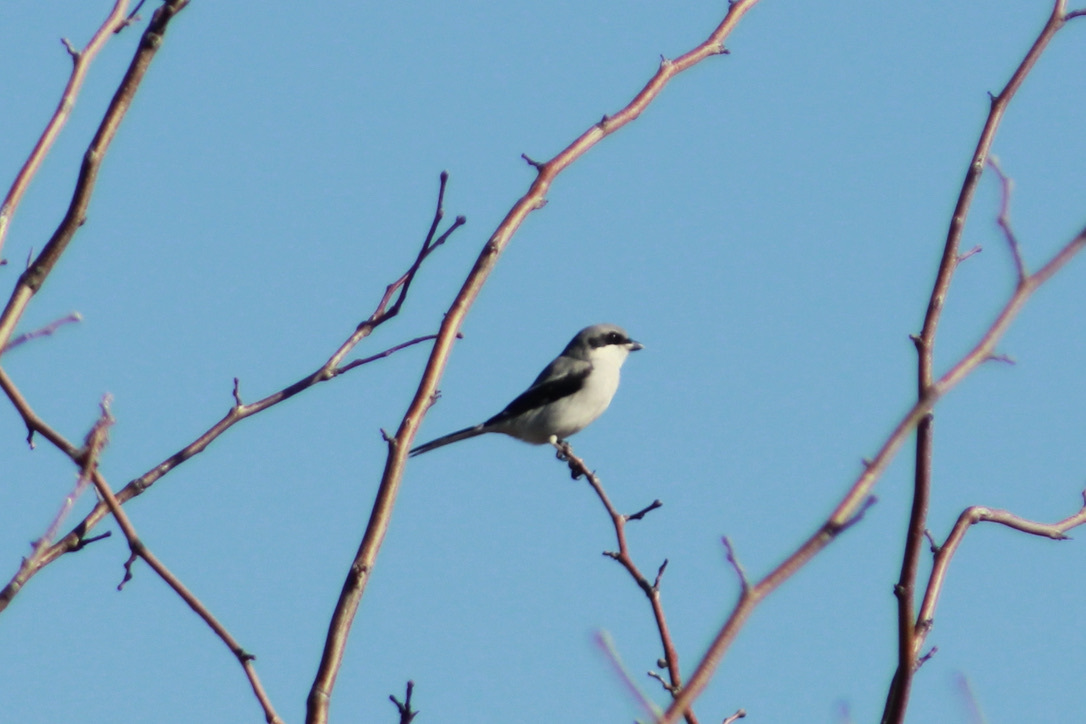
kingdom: Animalia
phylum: Chordata
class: Aves
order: Passeriformes
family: Laniidae
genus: Lanius
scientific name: Lanius ludovicianus
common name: Loggerhead shrike
